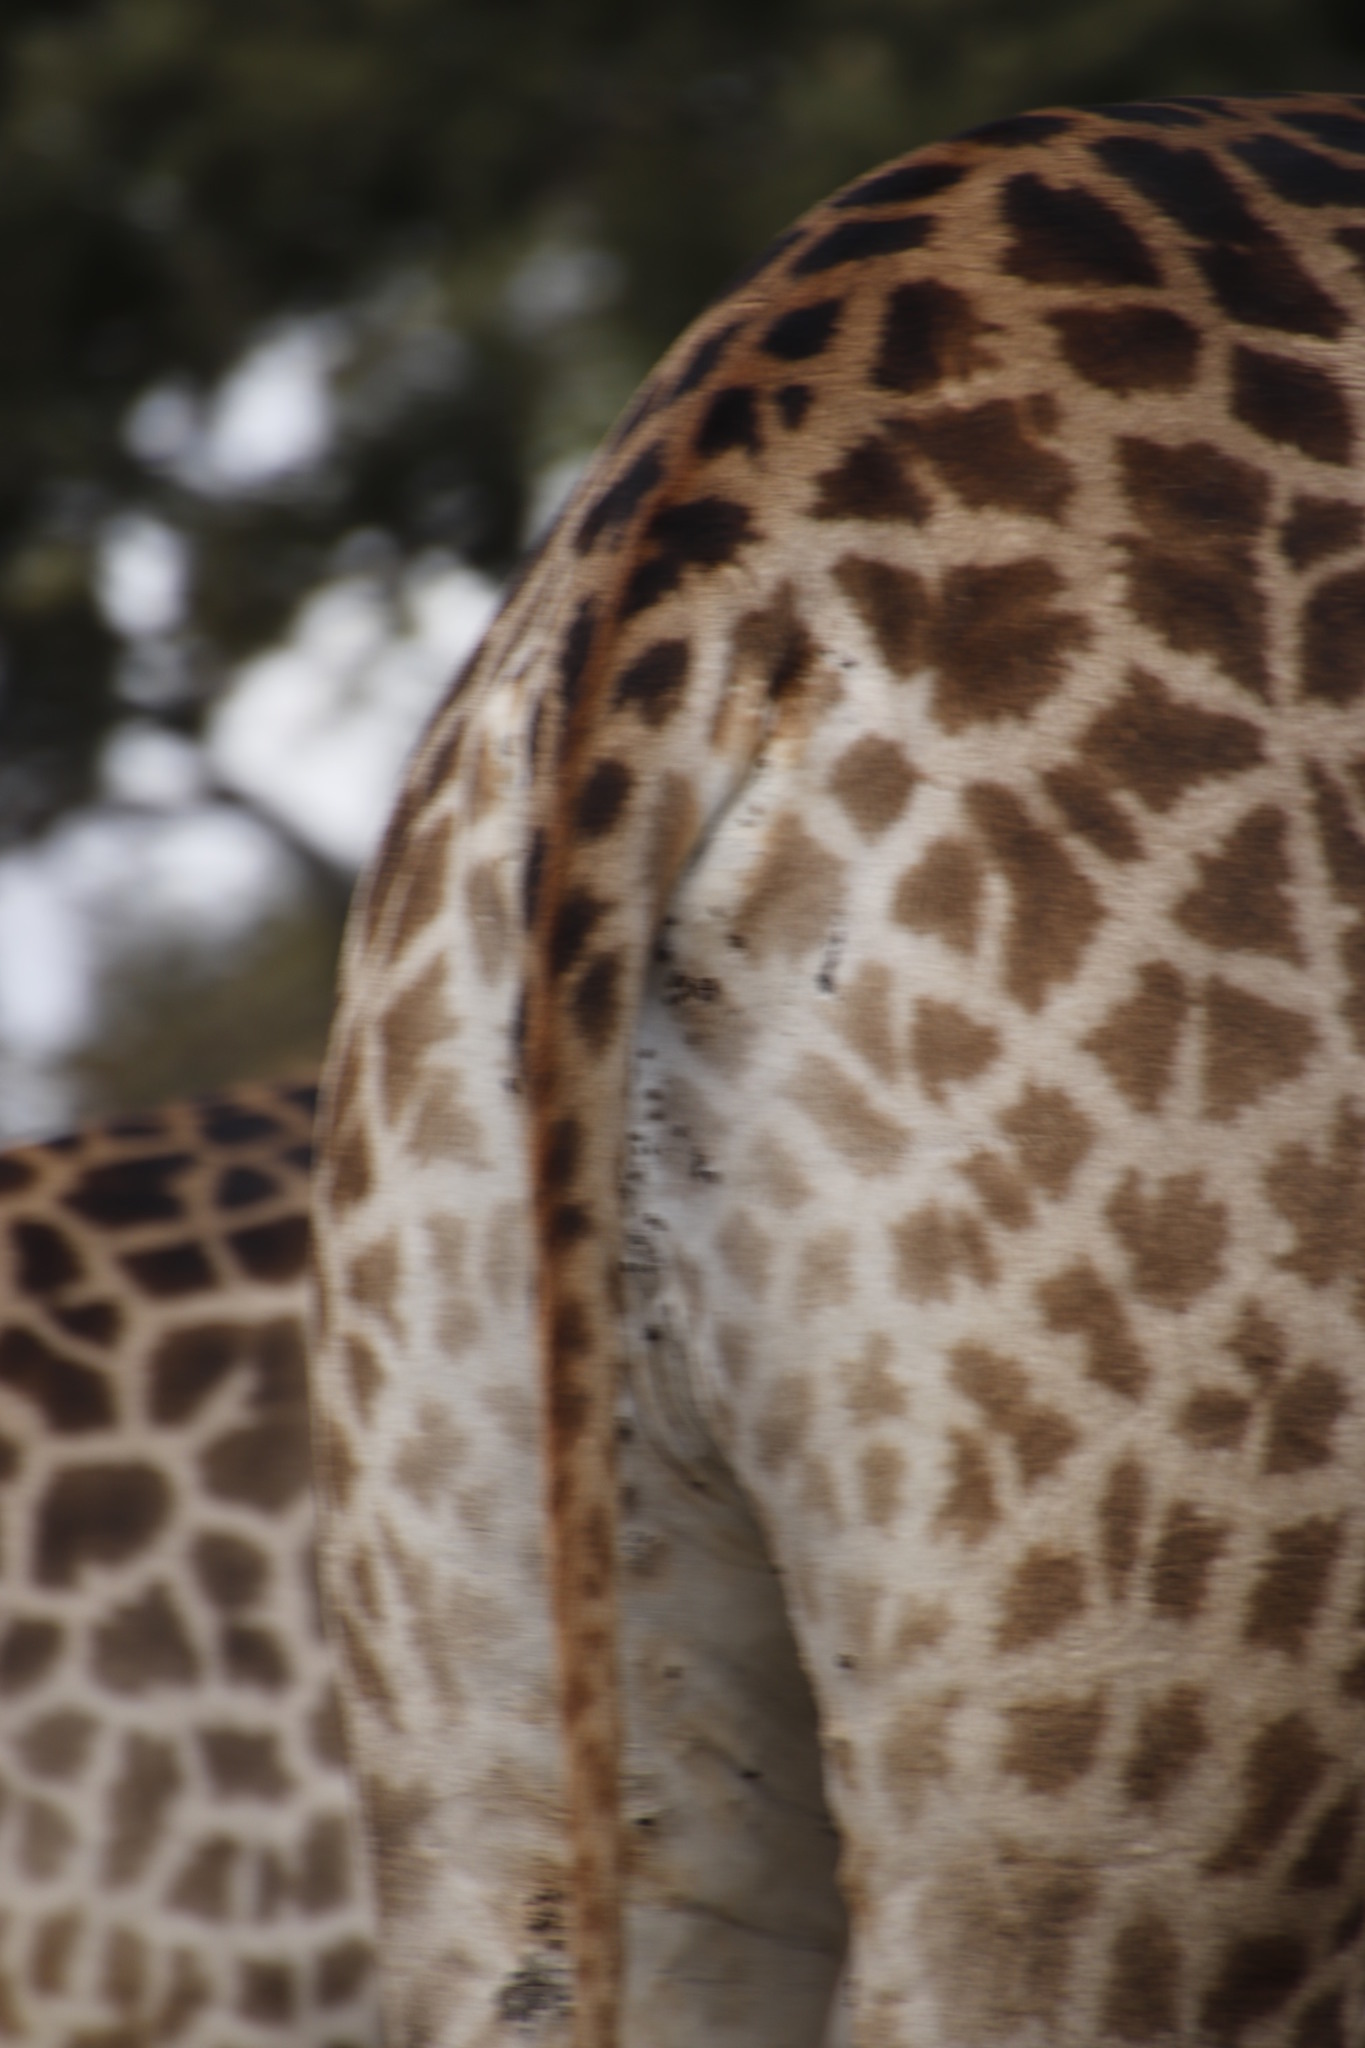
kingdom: Animalia
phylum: Chordata
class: Mammalia
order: Artiodactyla
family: Giraffidae
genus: Giraffa
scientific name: Giraffa giraffa
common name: Southern giraffe
